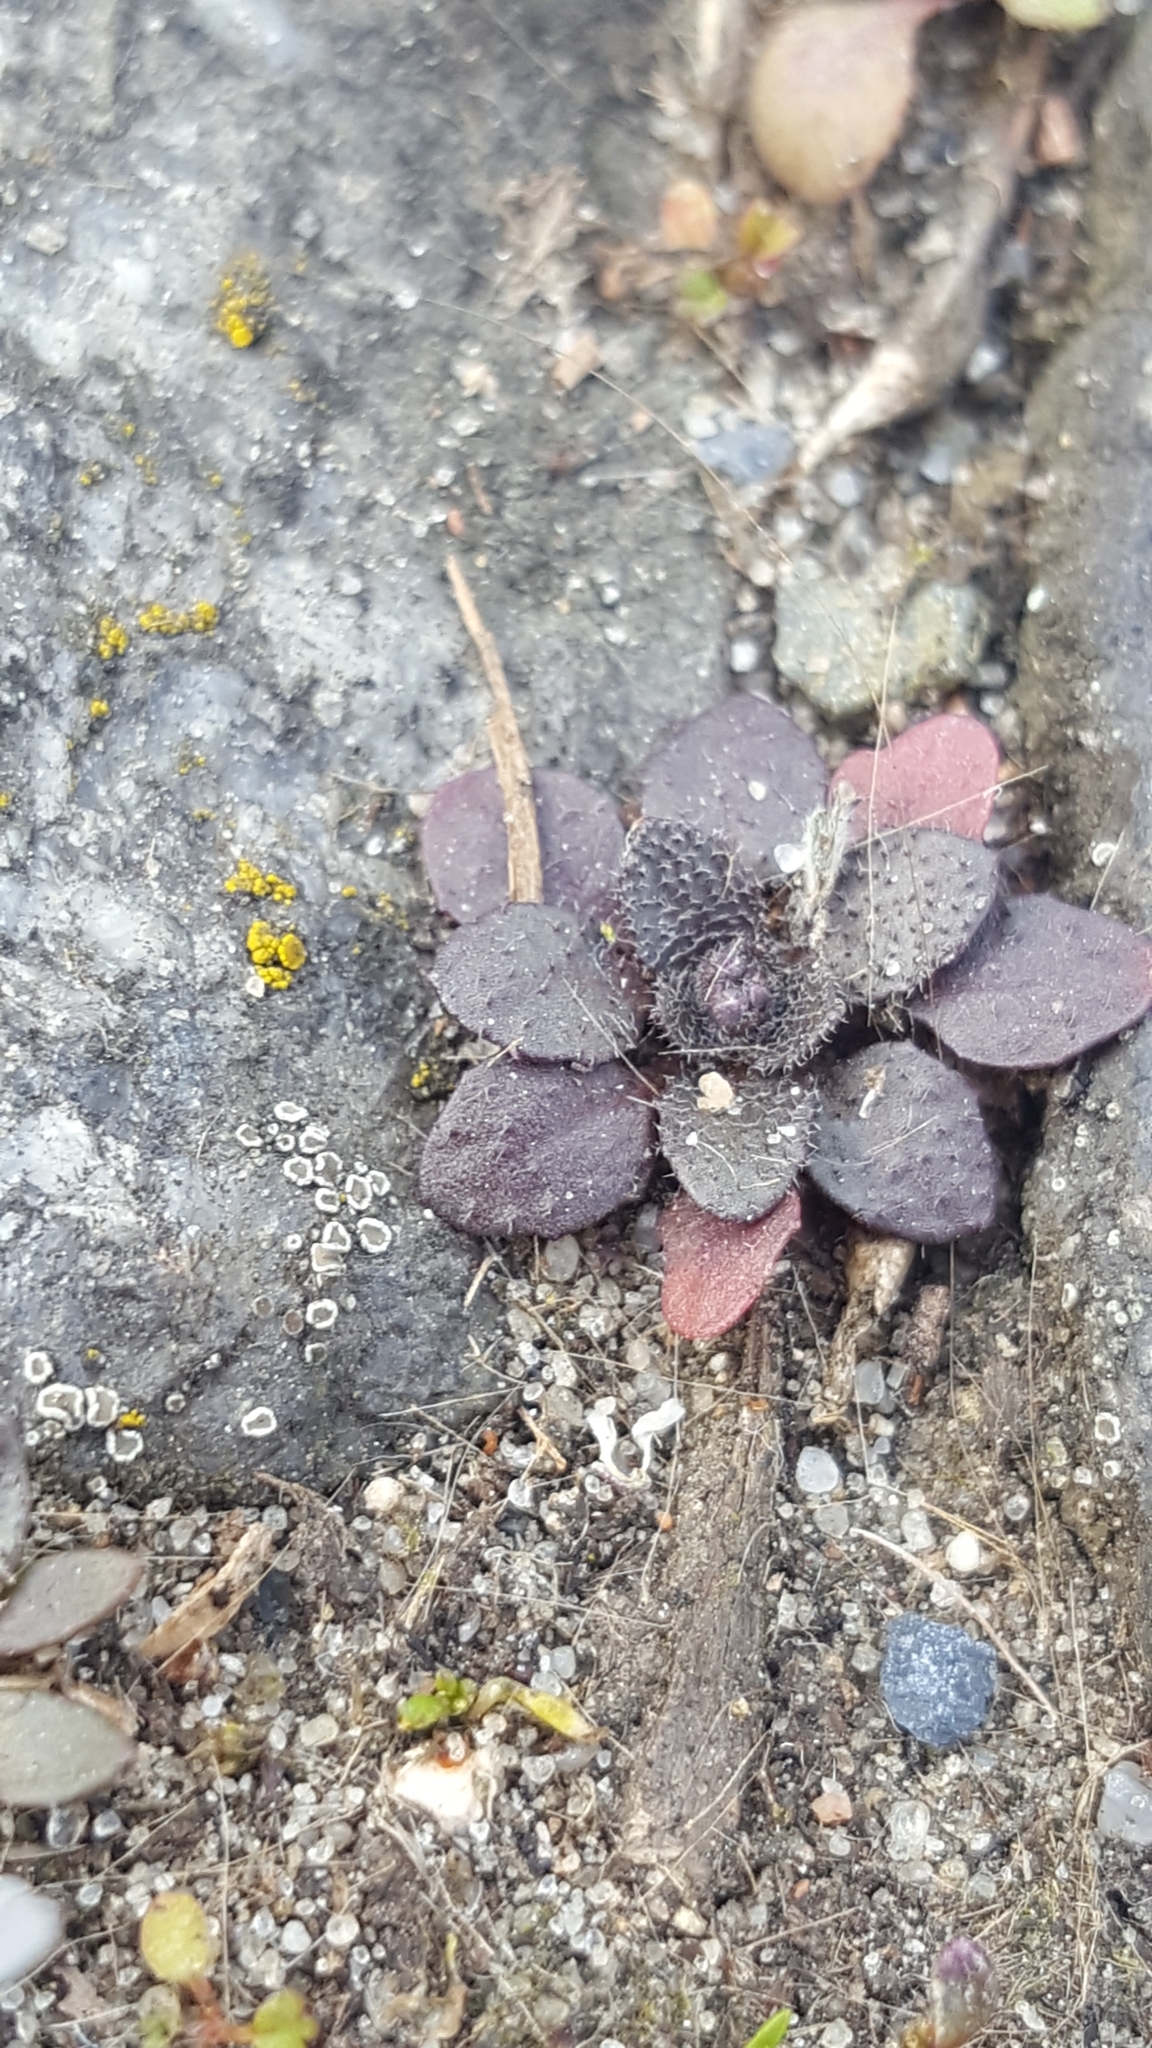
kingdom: Plantae
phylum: Tracheophyta
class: Magnoliopsida
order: Brassicales
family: Brassicaceae
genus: Arabidopsis
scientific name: Arabidopsis thaliana
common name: Thale cress
